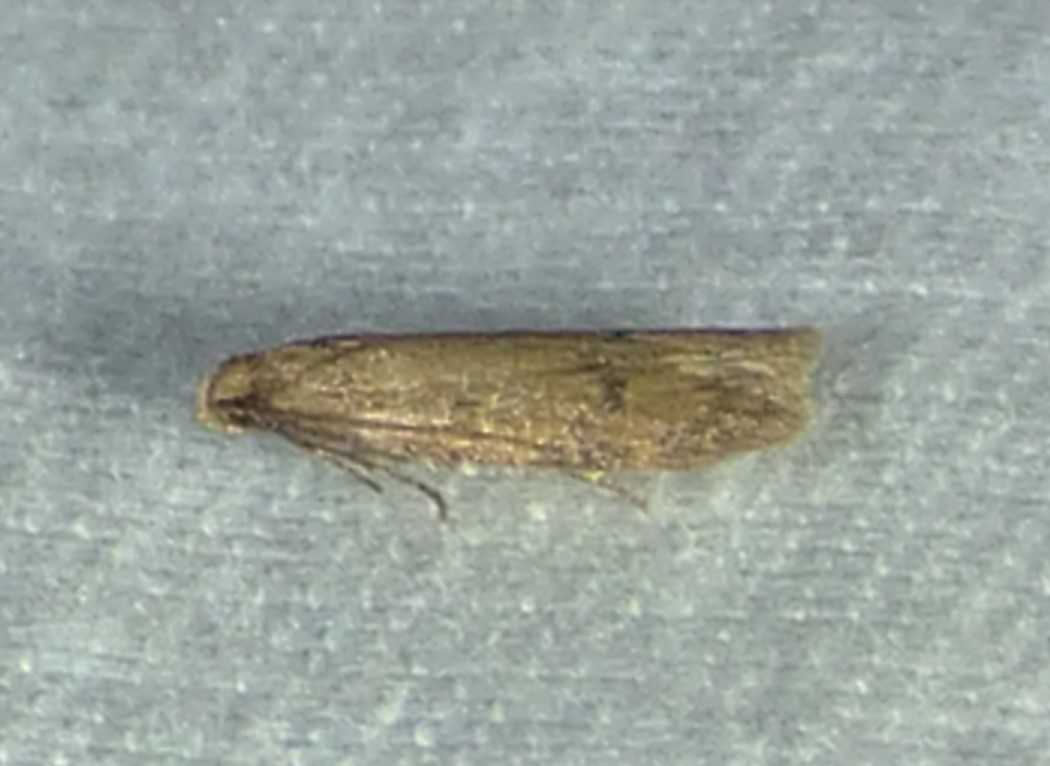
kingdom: Animalia
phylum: Arthropoda
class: Insecta
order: Lepidoptera
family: Autostichidae
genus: Gerdana
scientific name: Gerdana caritella
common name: Gerdana moth
